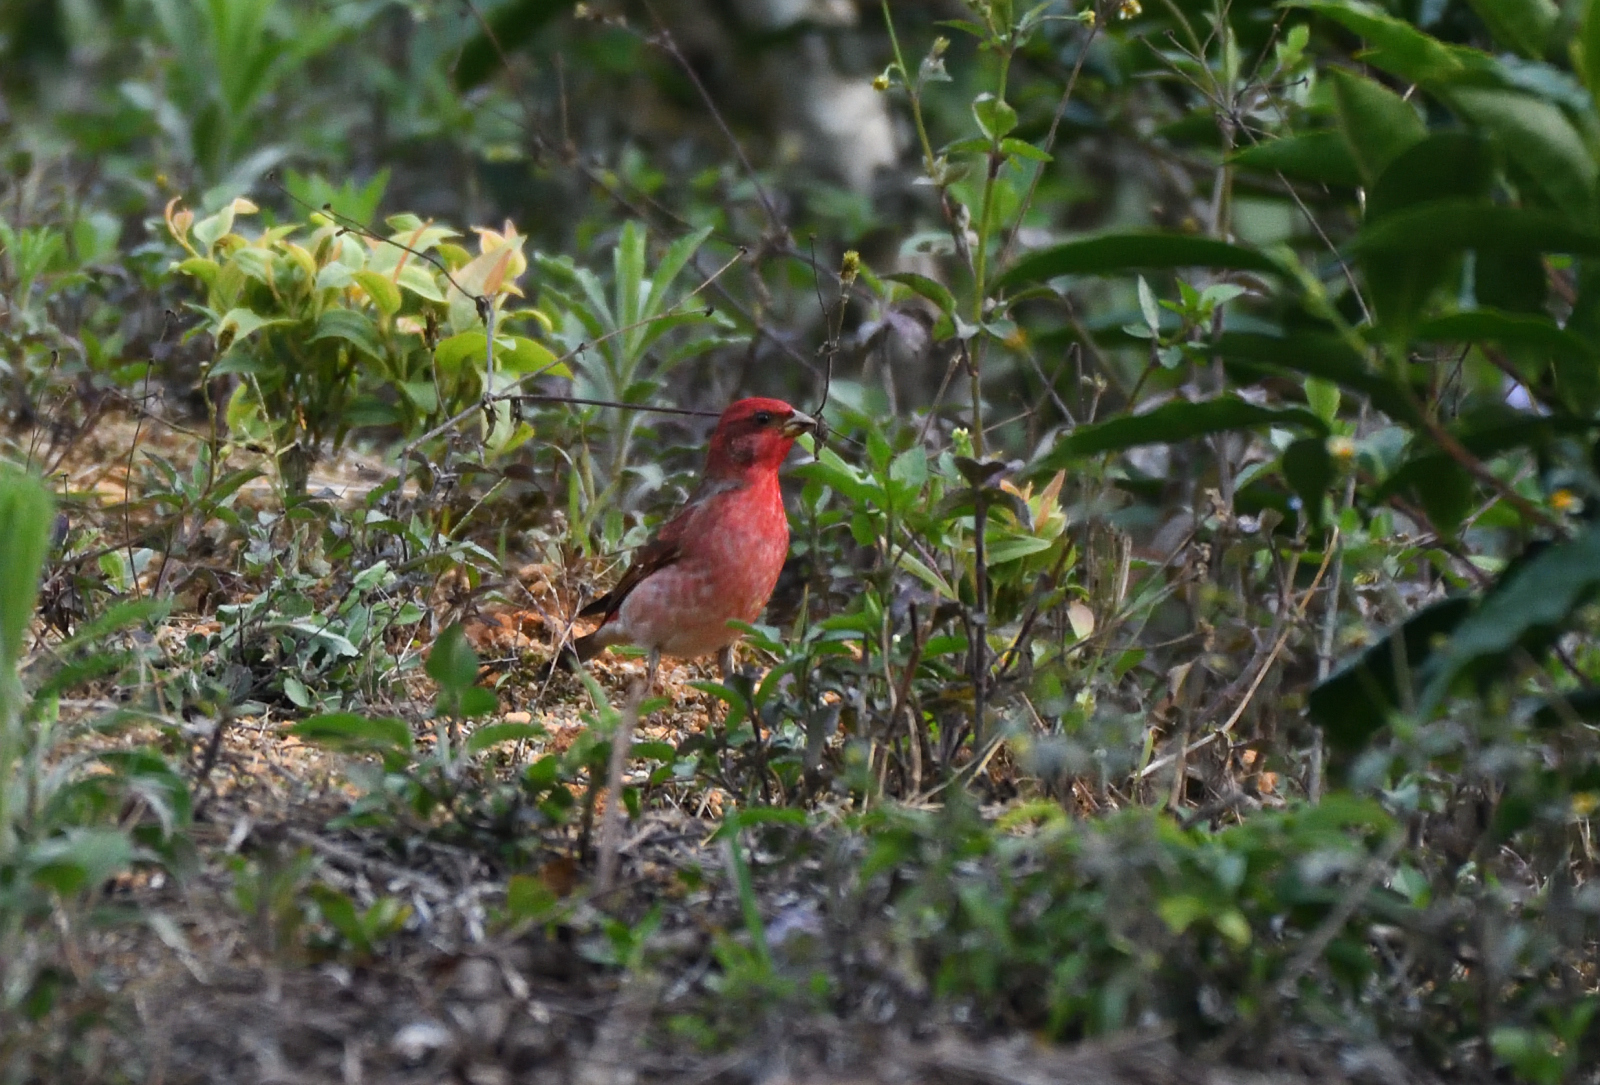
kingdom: Animalia
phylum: Chordata
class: Aves
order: Passeriformes
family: Fringillidae
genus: Carpodacus
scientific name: Carpodacus erythrinus
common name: Common rosefinch
